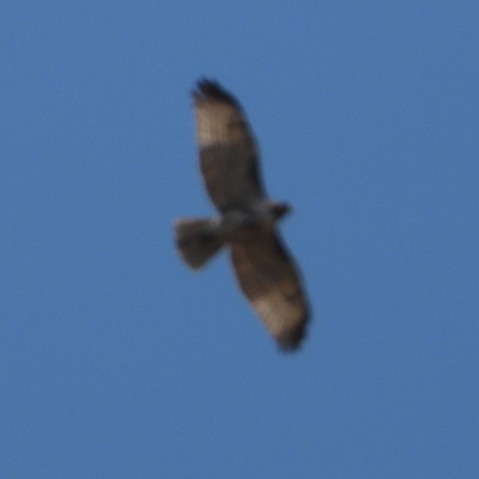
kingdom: Animalia
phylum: Chordata
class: Aves
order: Accipitriformes
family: Accipitridae
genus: Buteo
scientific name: Buteo jamaicensis
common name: Red-tailed hawk
